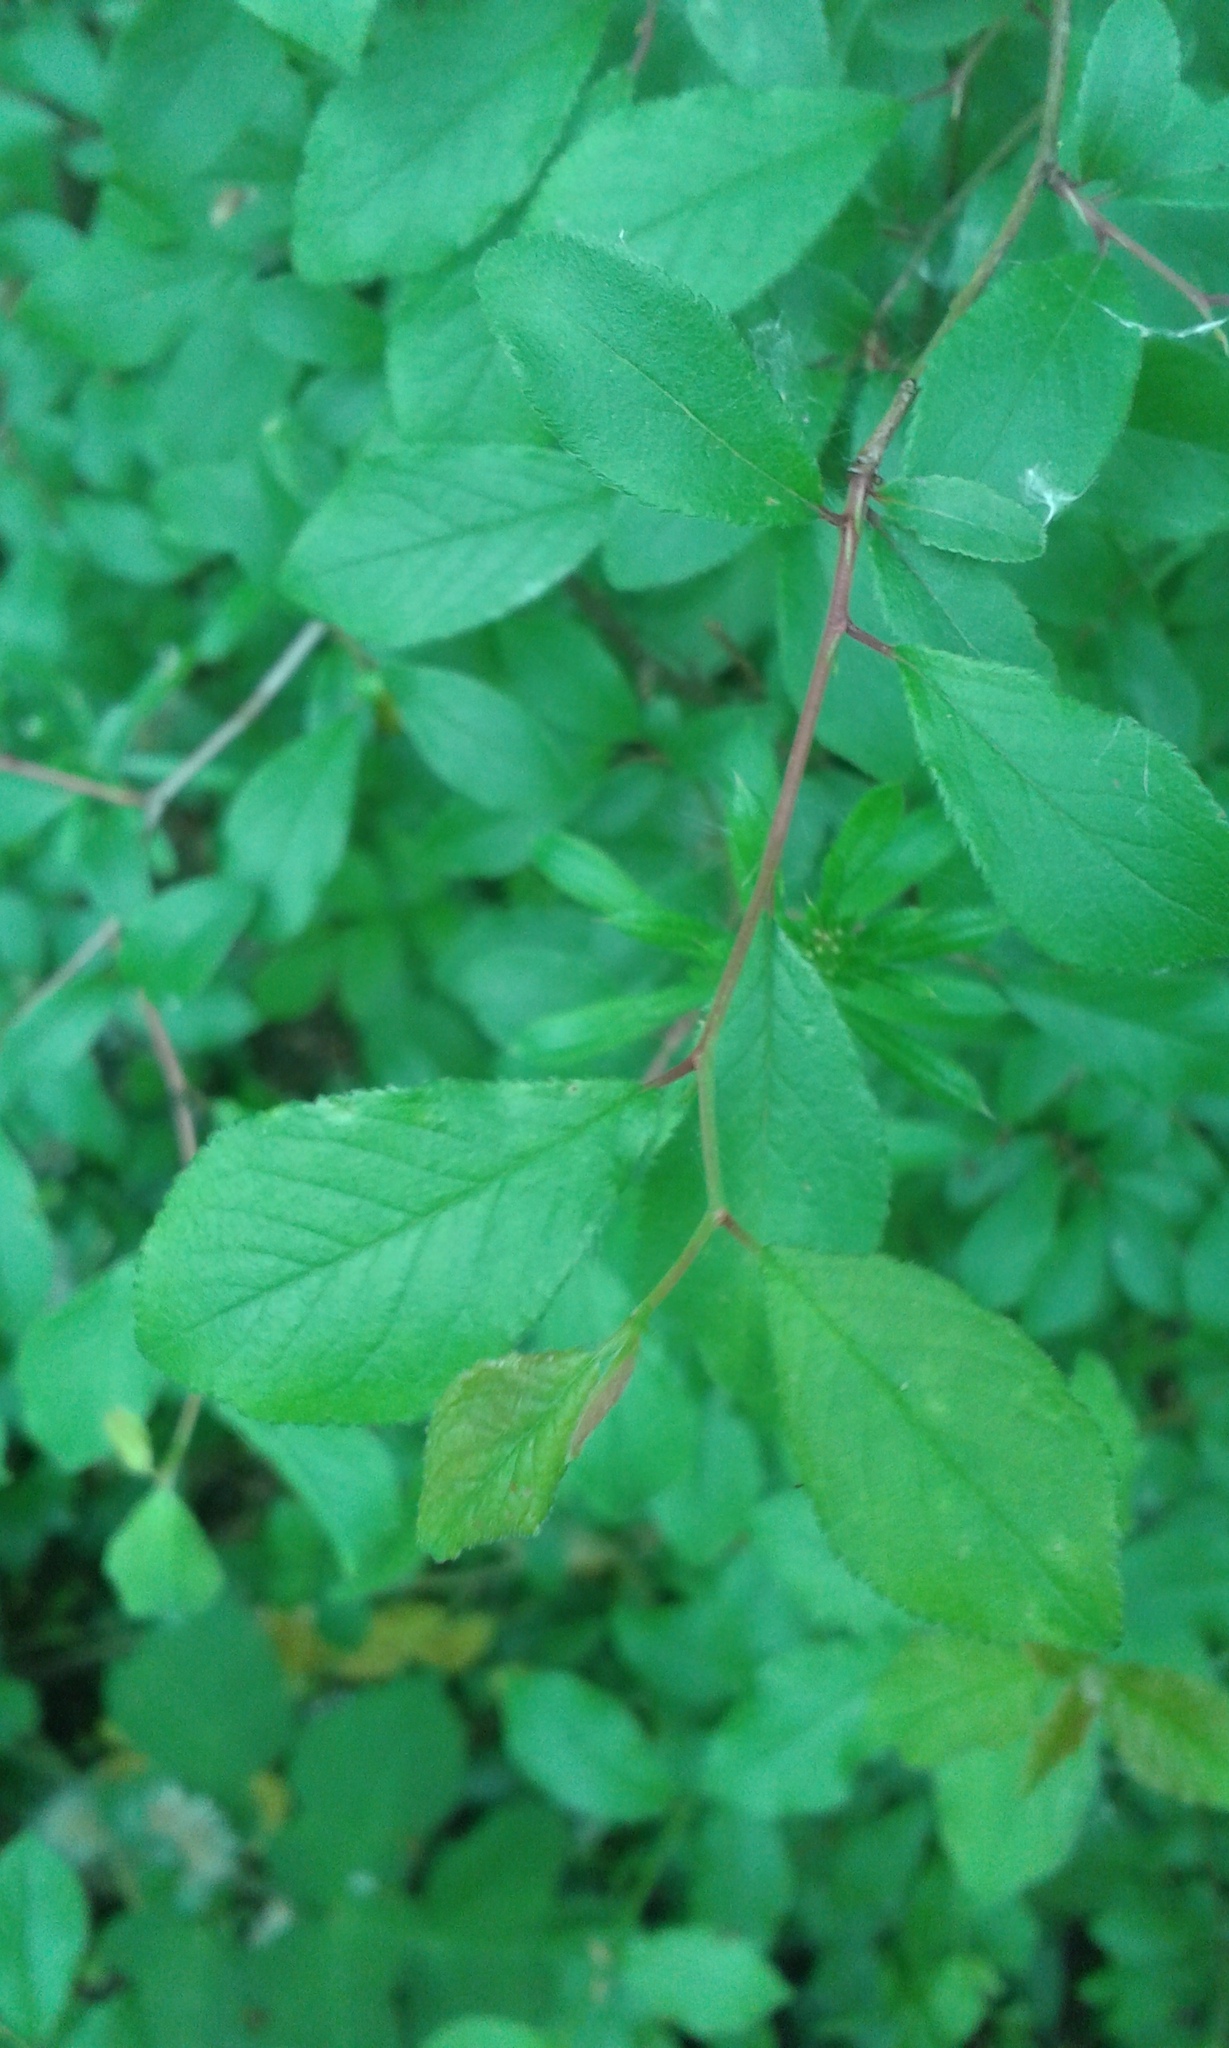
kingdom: Plantae
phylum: Tracheophyta
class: Magnoliopsida
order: Rosales
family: Rosaceae
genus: Prunus
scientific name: Prunus spinosa
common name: Blackthorn
